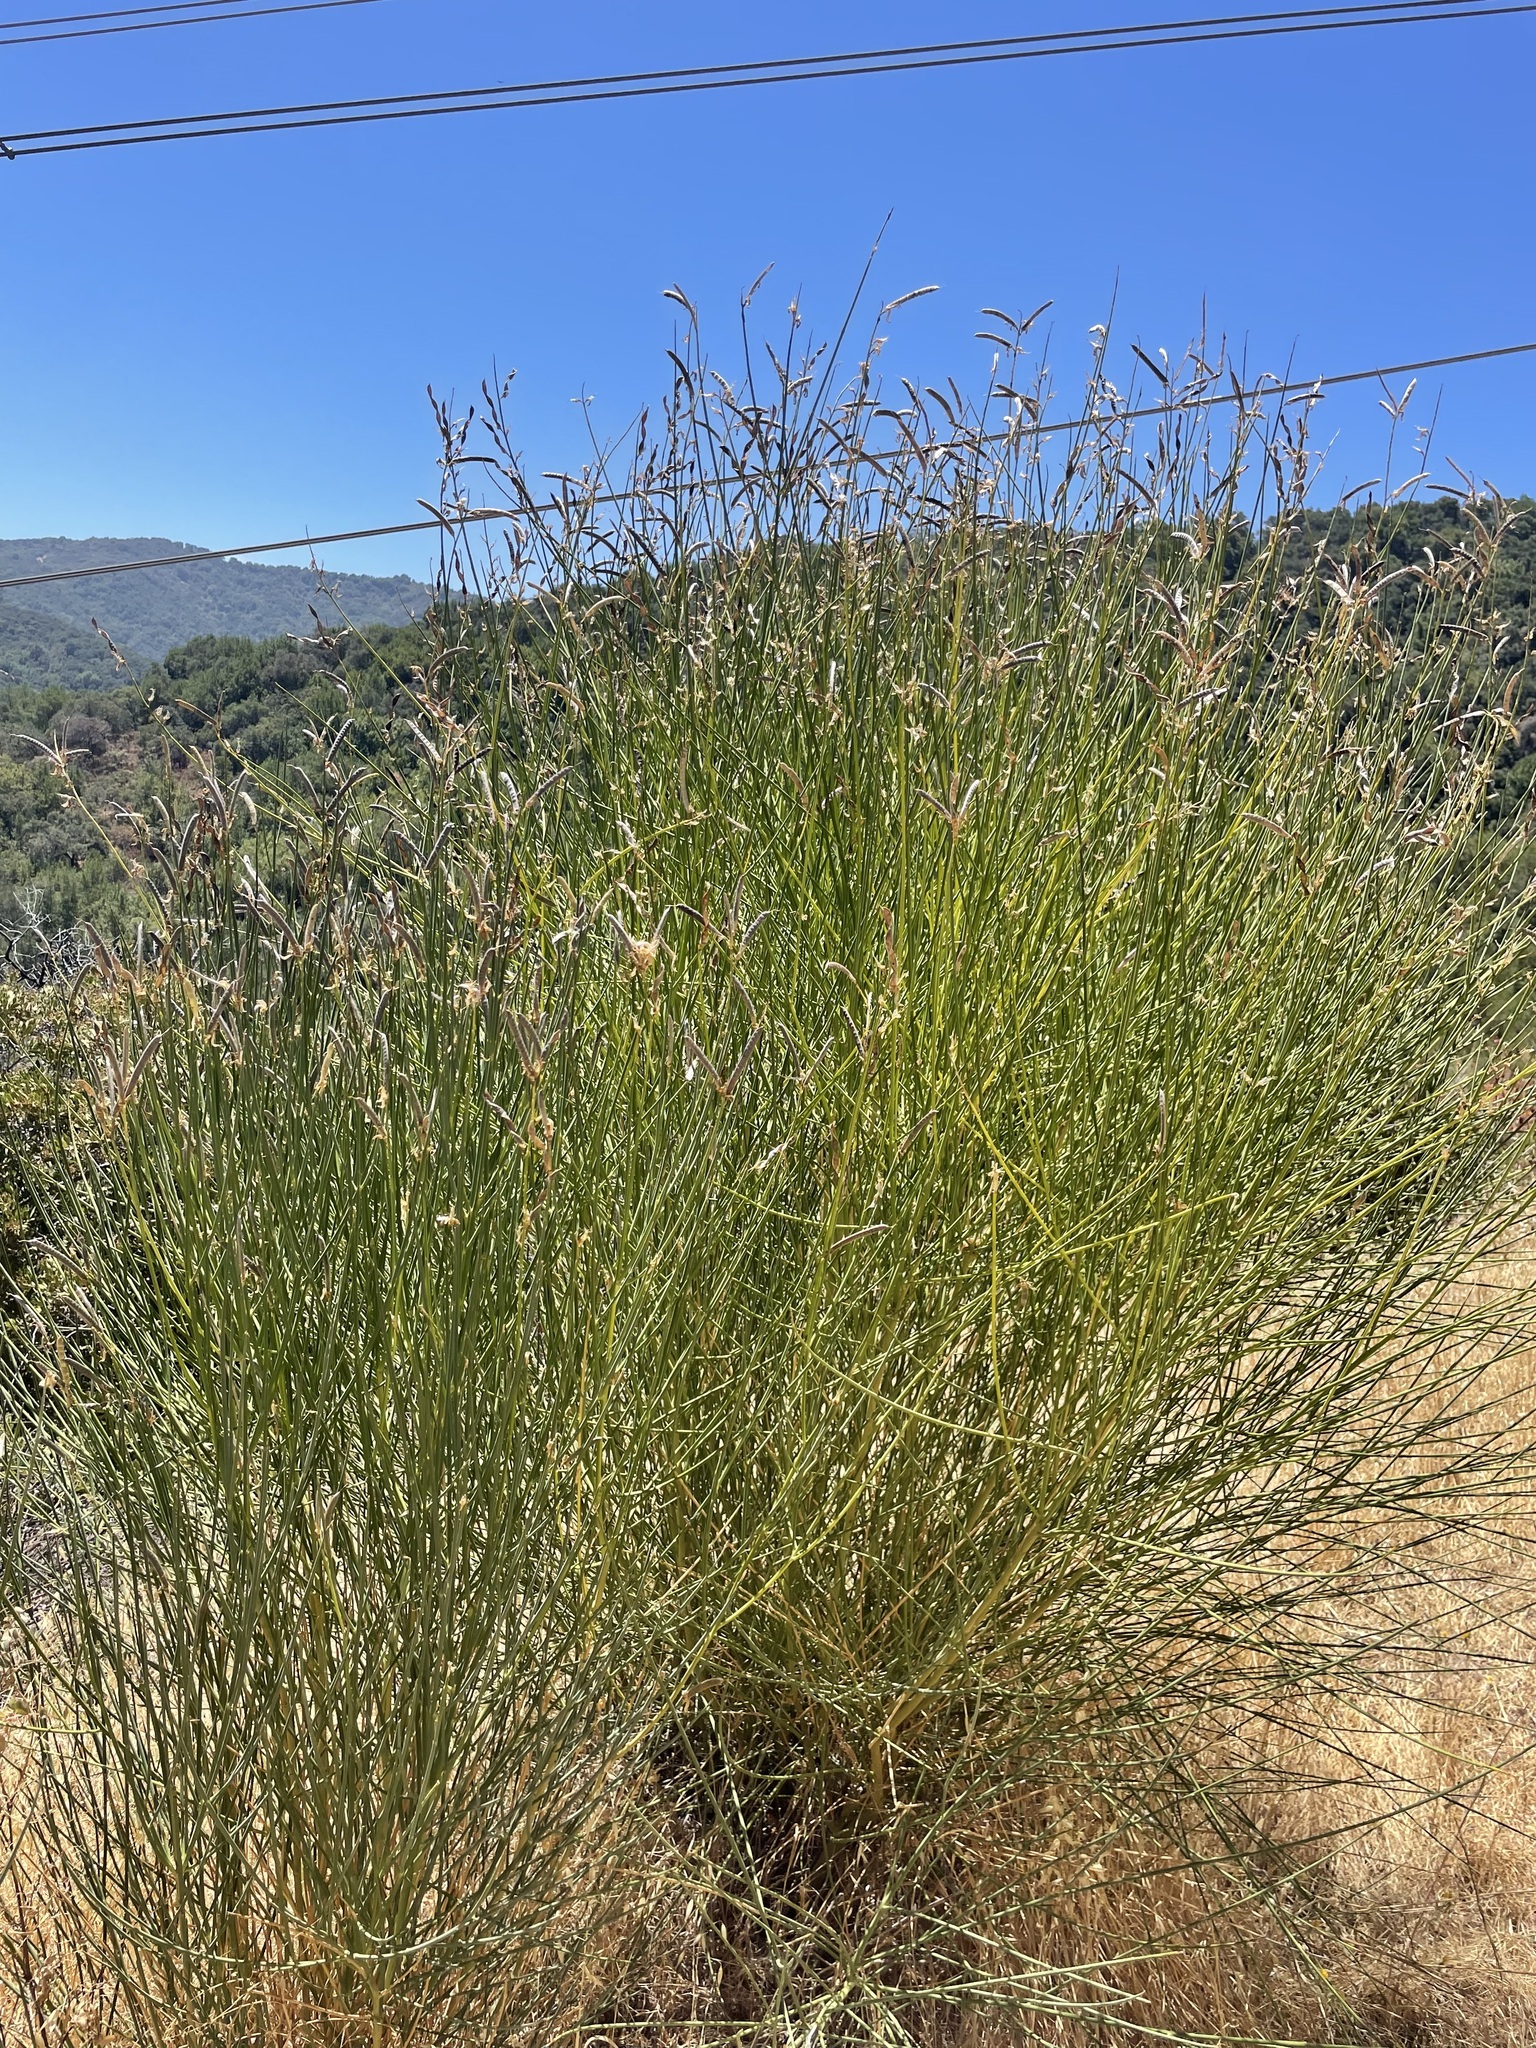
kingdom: Plantae
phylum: Tracheophyta
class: Magnoliopsida
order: Fabales
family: Fabaceae
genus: Spartium
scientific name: Spartium junceum
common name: Spanish broom
